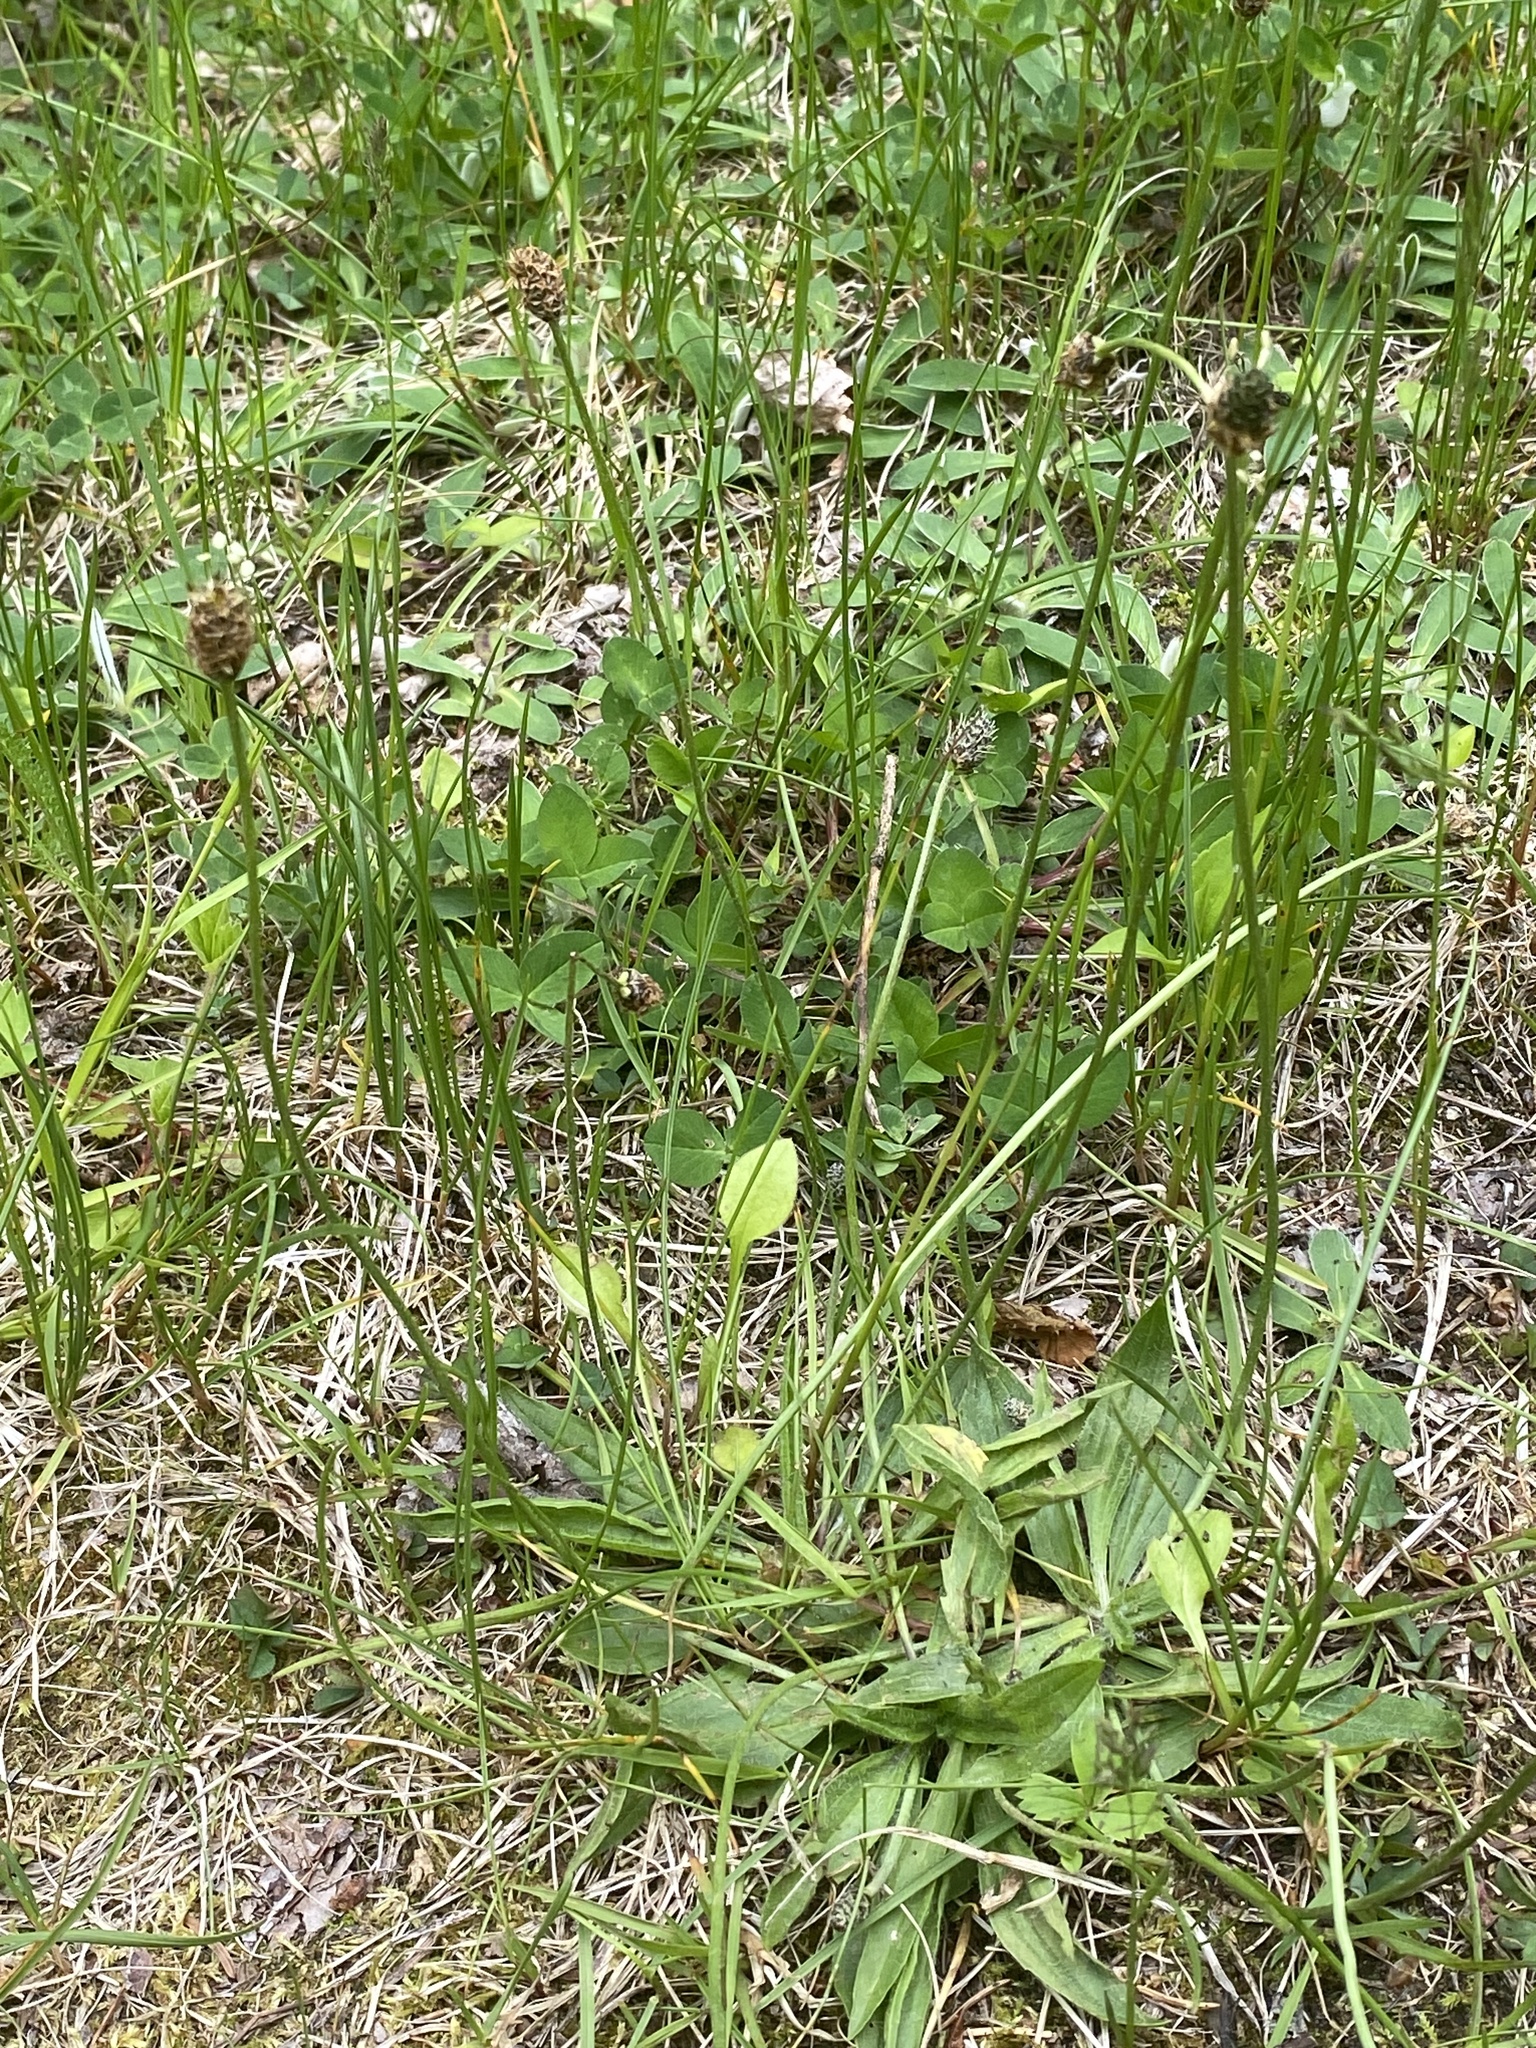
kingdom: Plantae
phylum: Tracheophyta
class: Magnoliopsida
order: Lamiales
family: Plantaginaceae
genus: Plantago
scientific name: Plantago lanceolata
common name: Ribwort plantain
